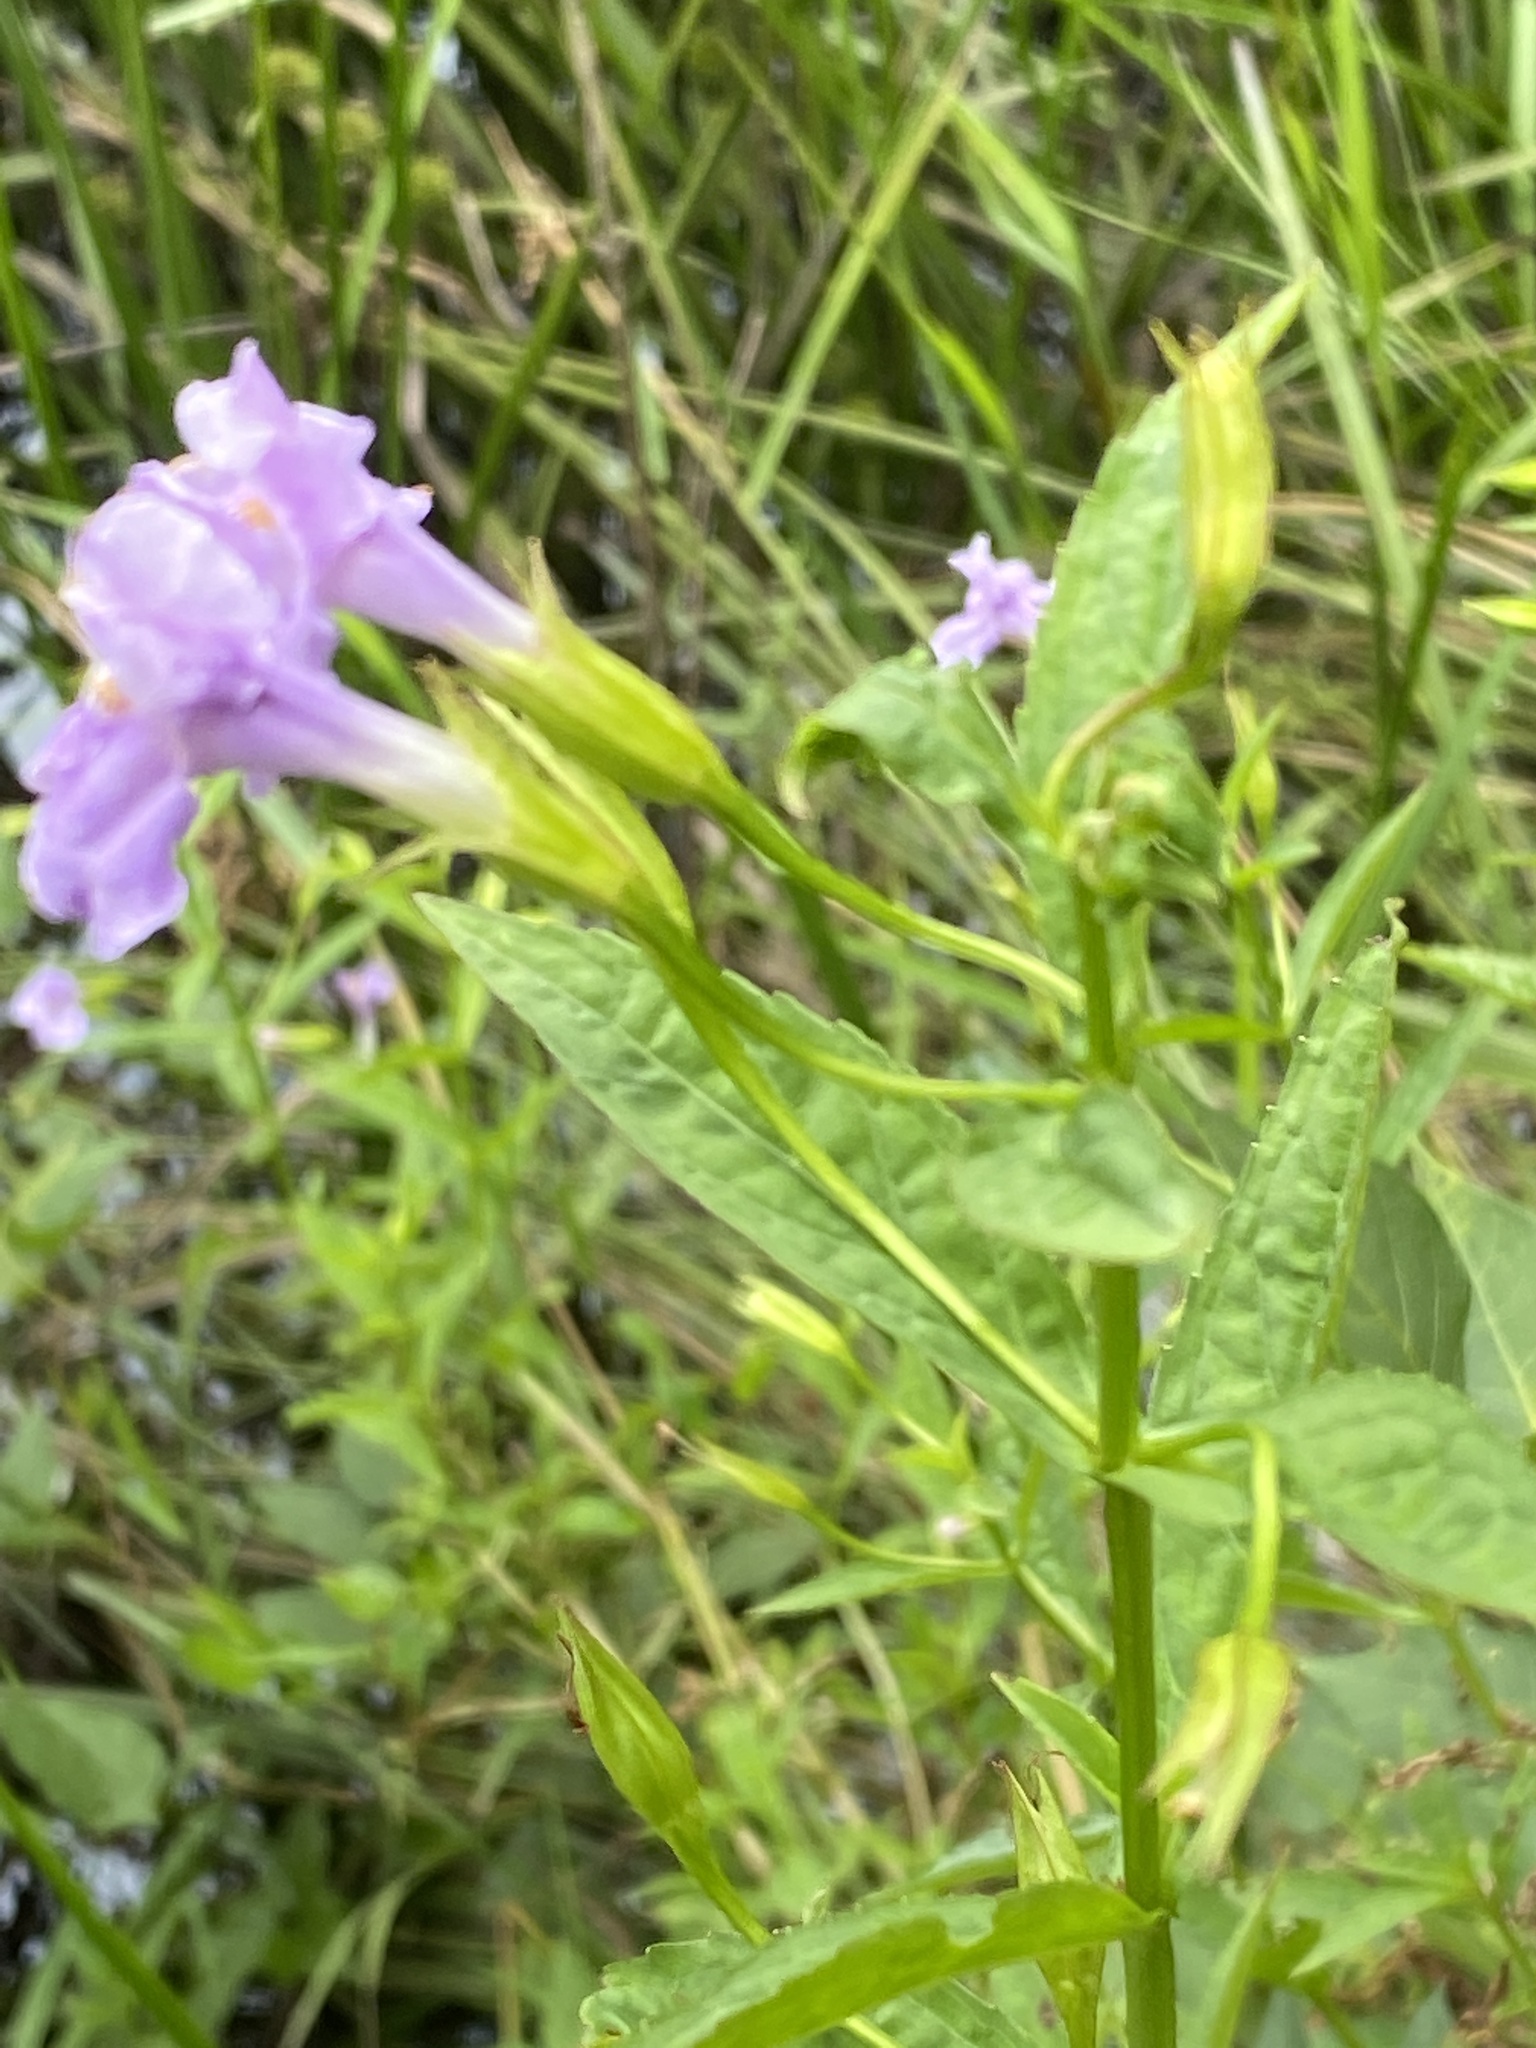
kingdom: Plantae
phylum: Tracheophyta
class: Magnoliopsida
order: Lamiales
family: Phrymaceae
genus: Mimulus
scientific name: Mimulus ringens
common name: Allegheny monkeyflower
